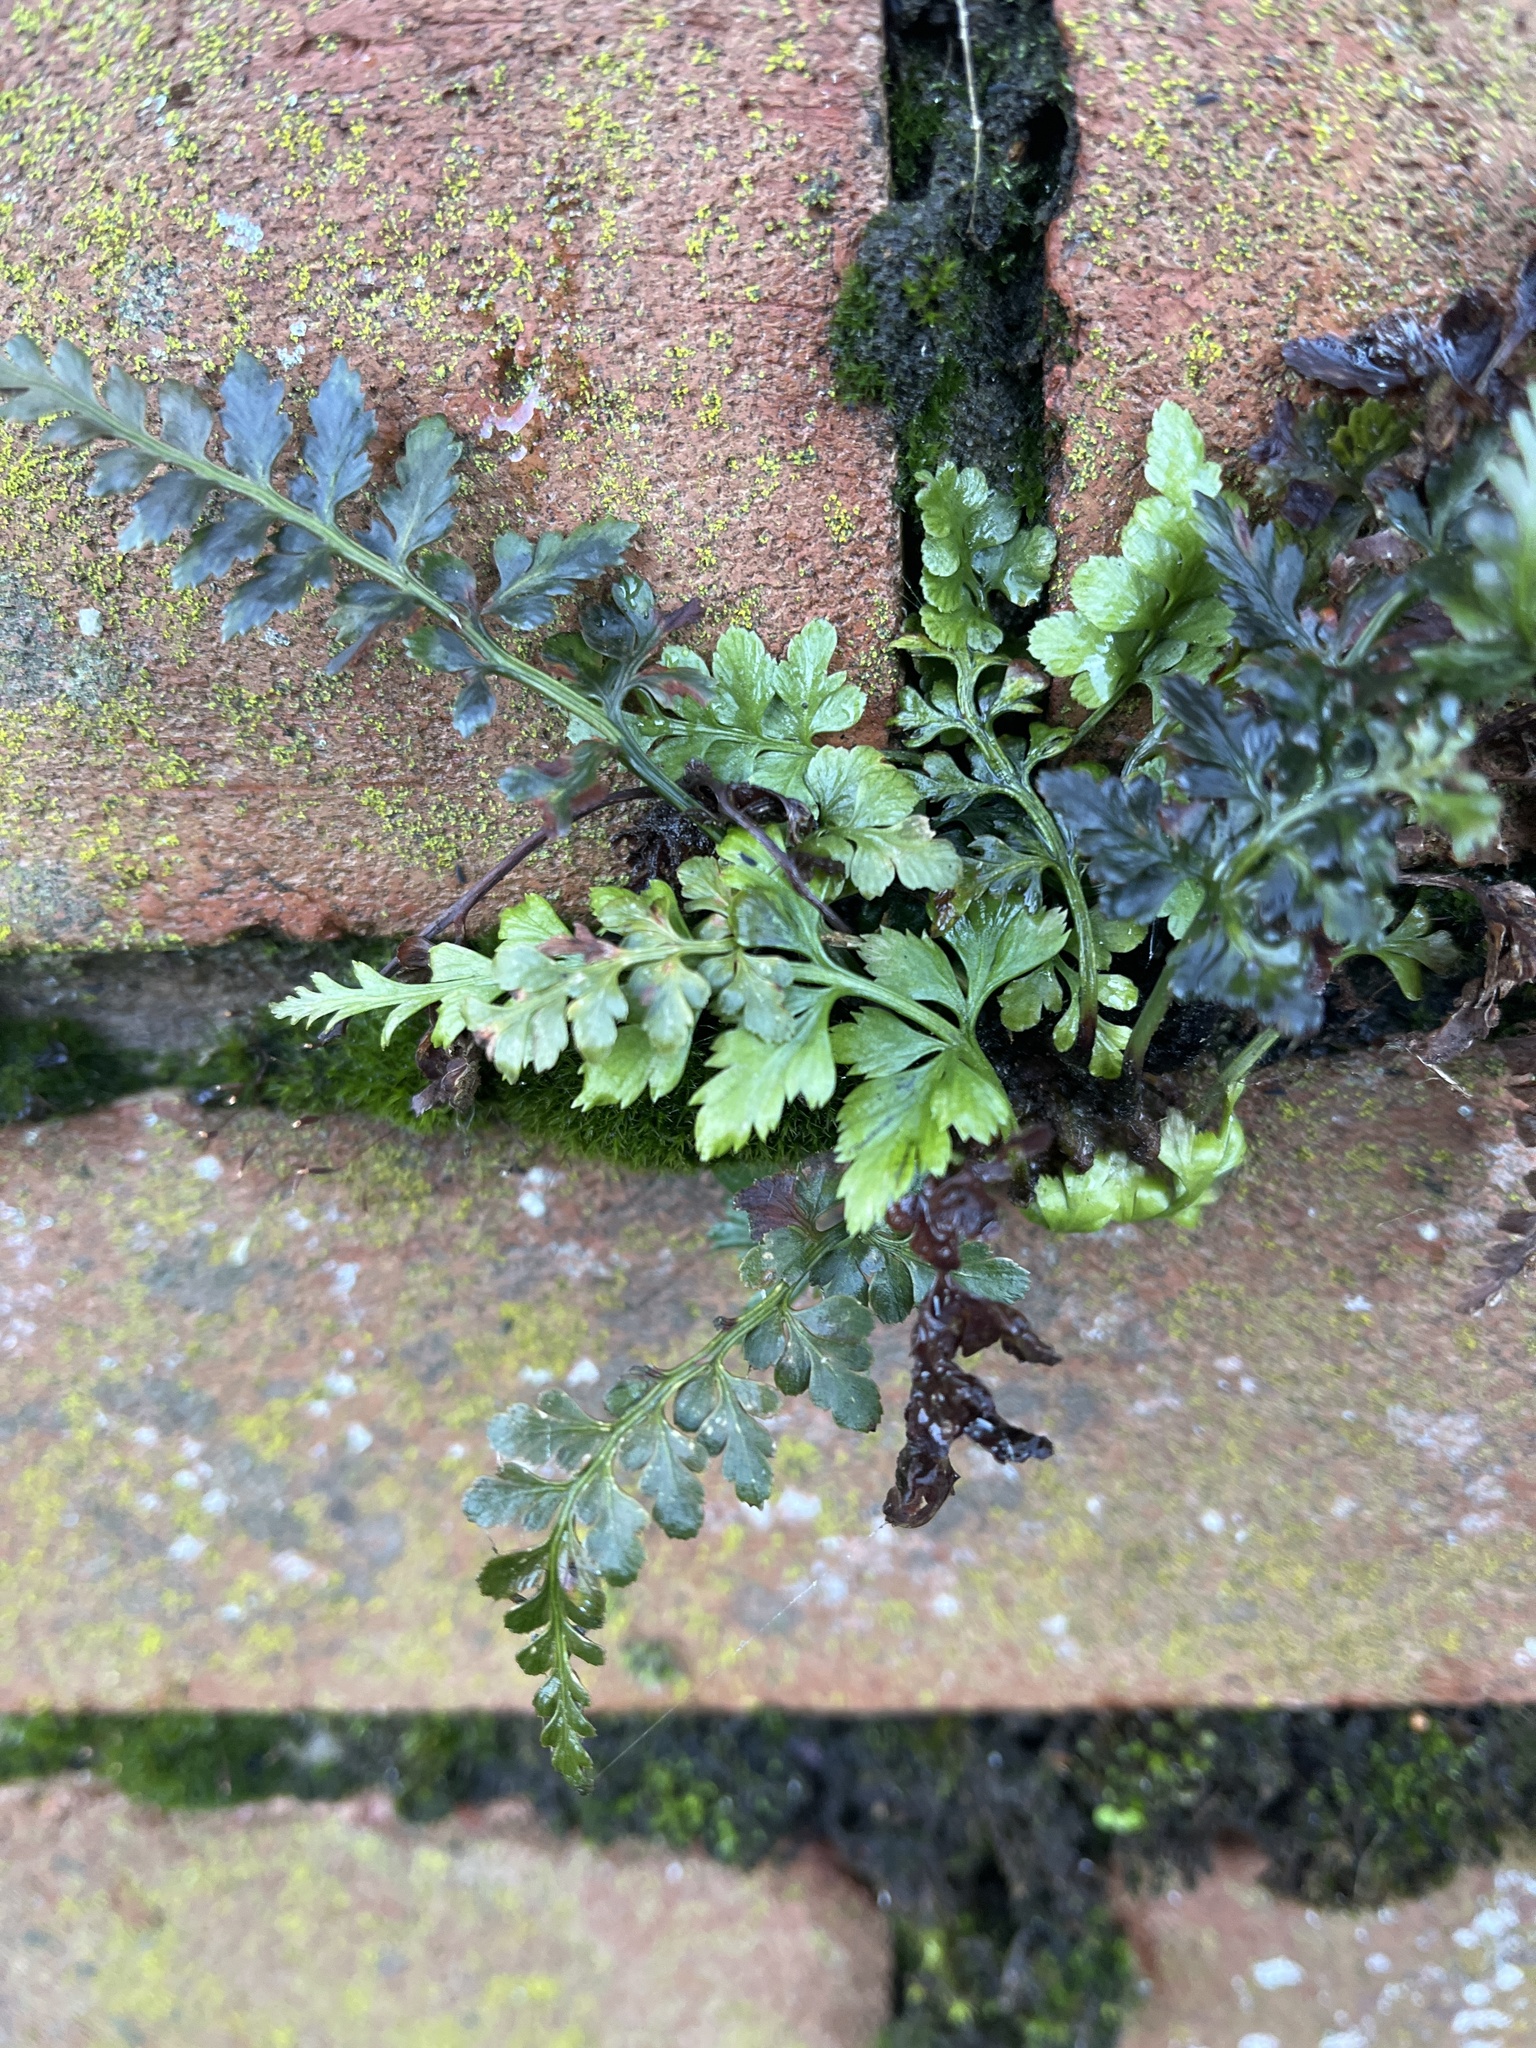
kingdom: Plantae
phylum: Tracheophyta
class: Polypodiopsida
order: Polypodiales
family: Aspleniaceae
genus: Asplenium
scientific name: Asplenium adiantum-nigrum
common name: Black spleenwort
